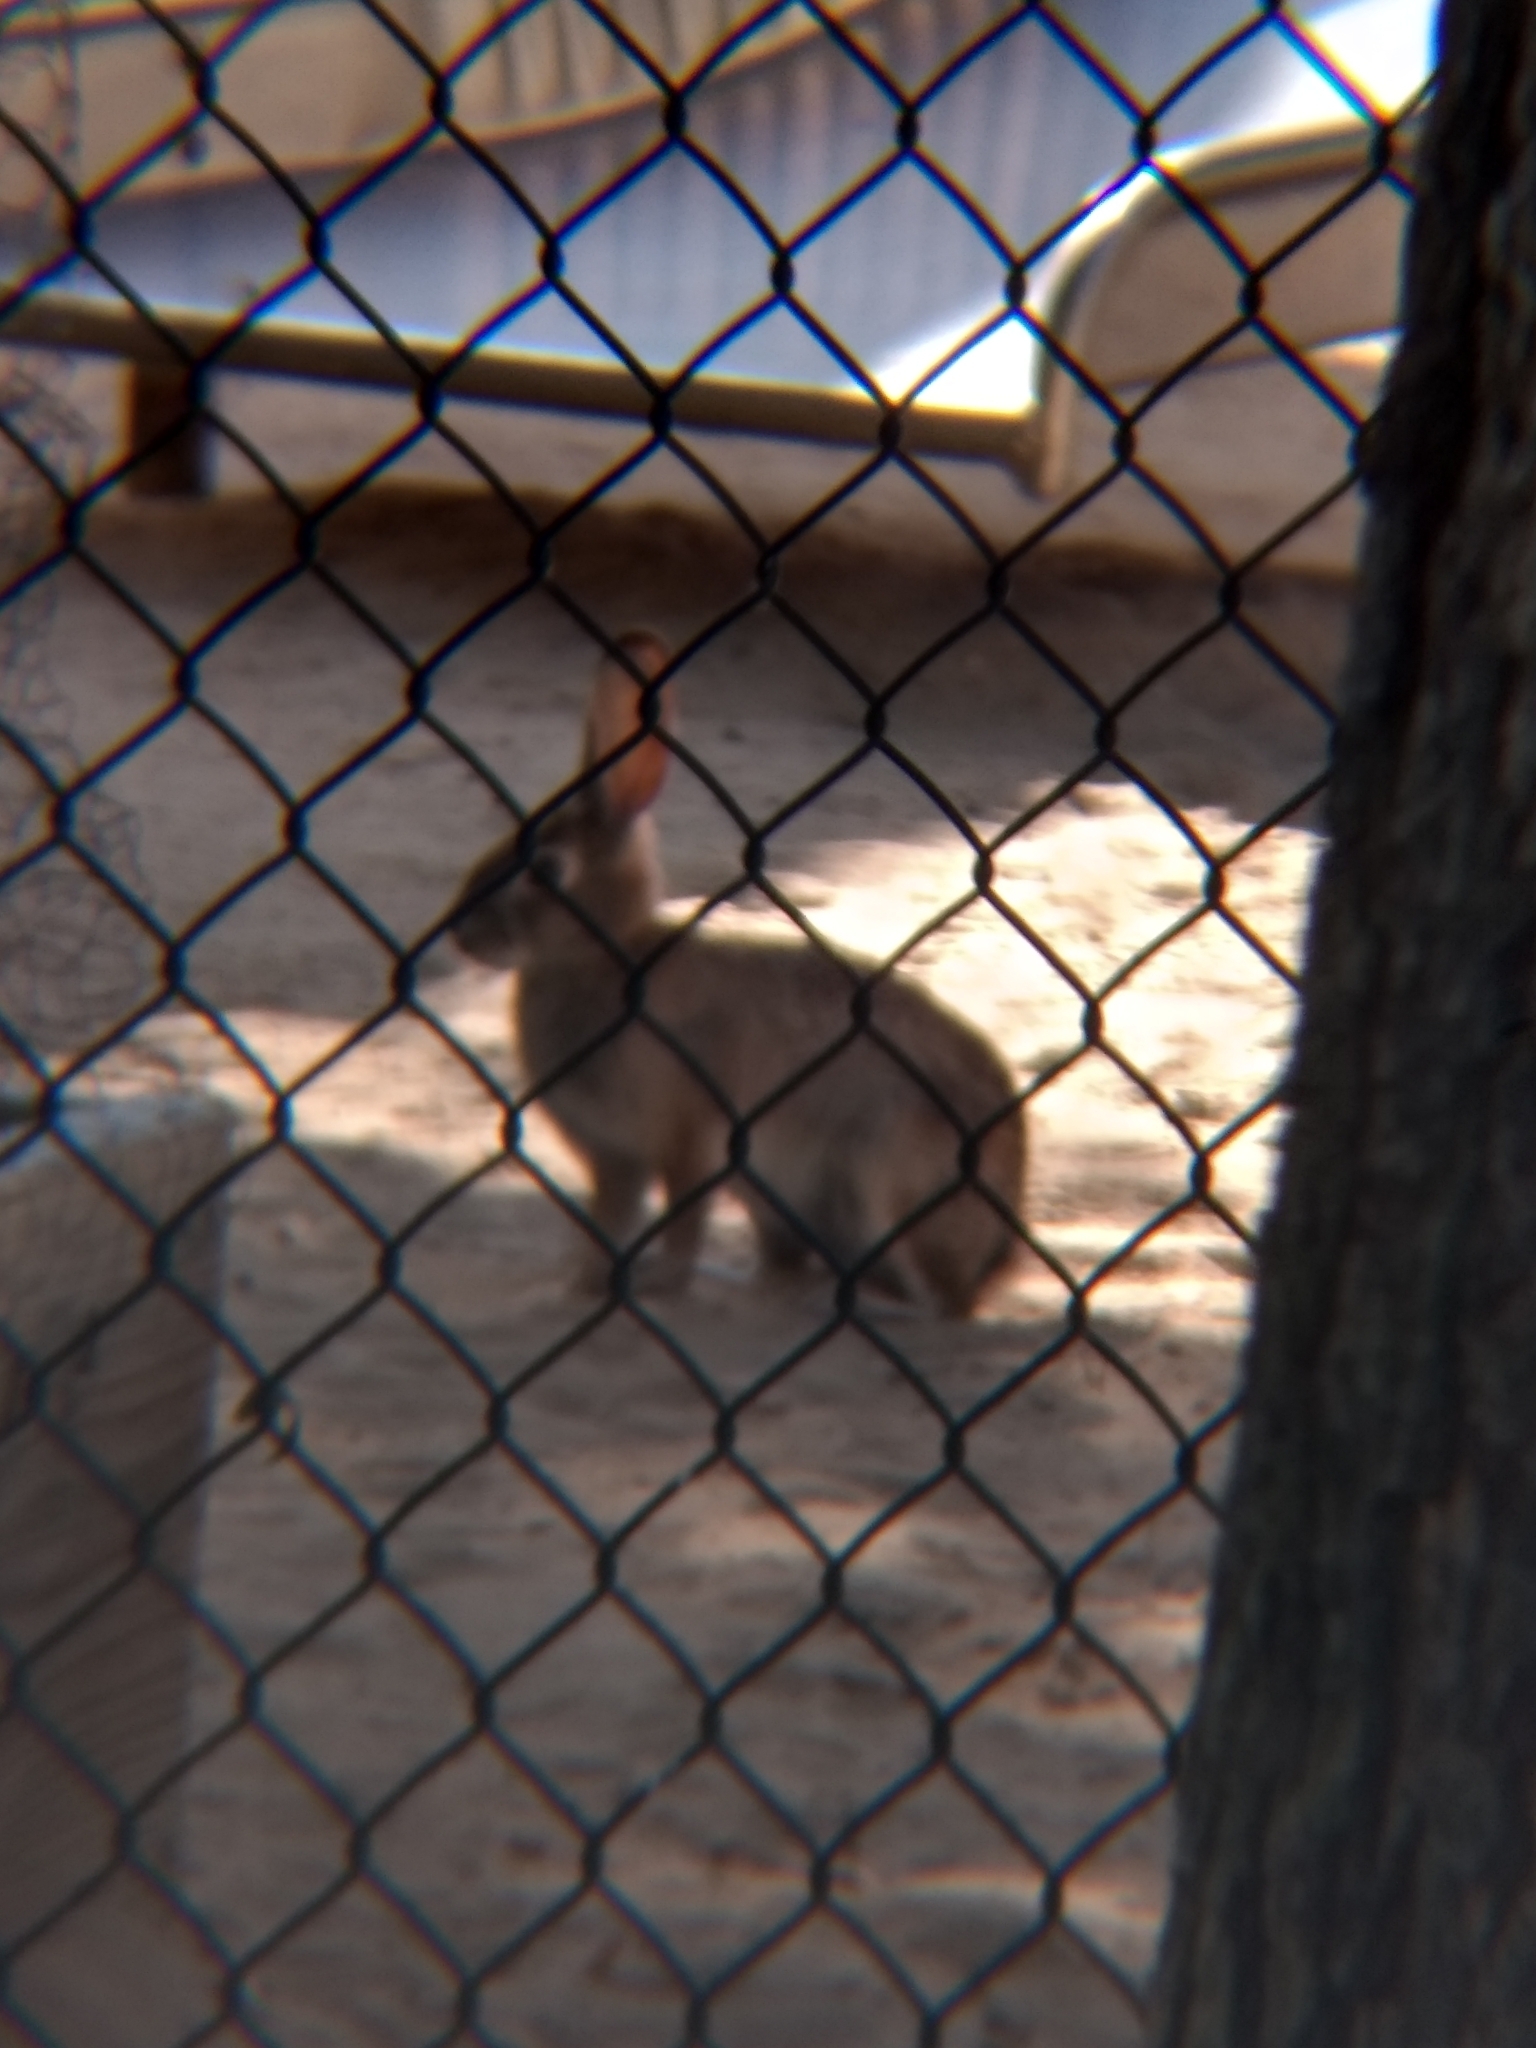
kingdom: Animalia
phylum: Chordata
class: Mammalia
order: Lagomorpha
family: Leporidae
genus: Sylvilagus
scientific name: Sylvilagus audubonii
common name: Desert cottontail
